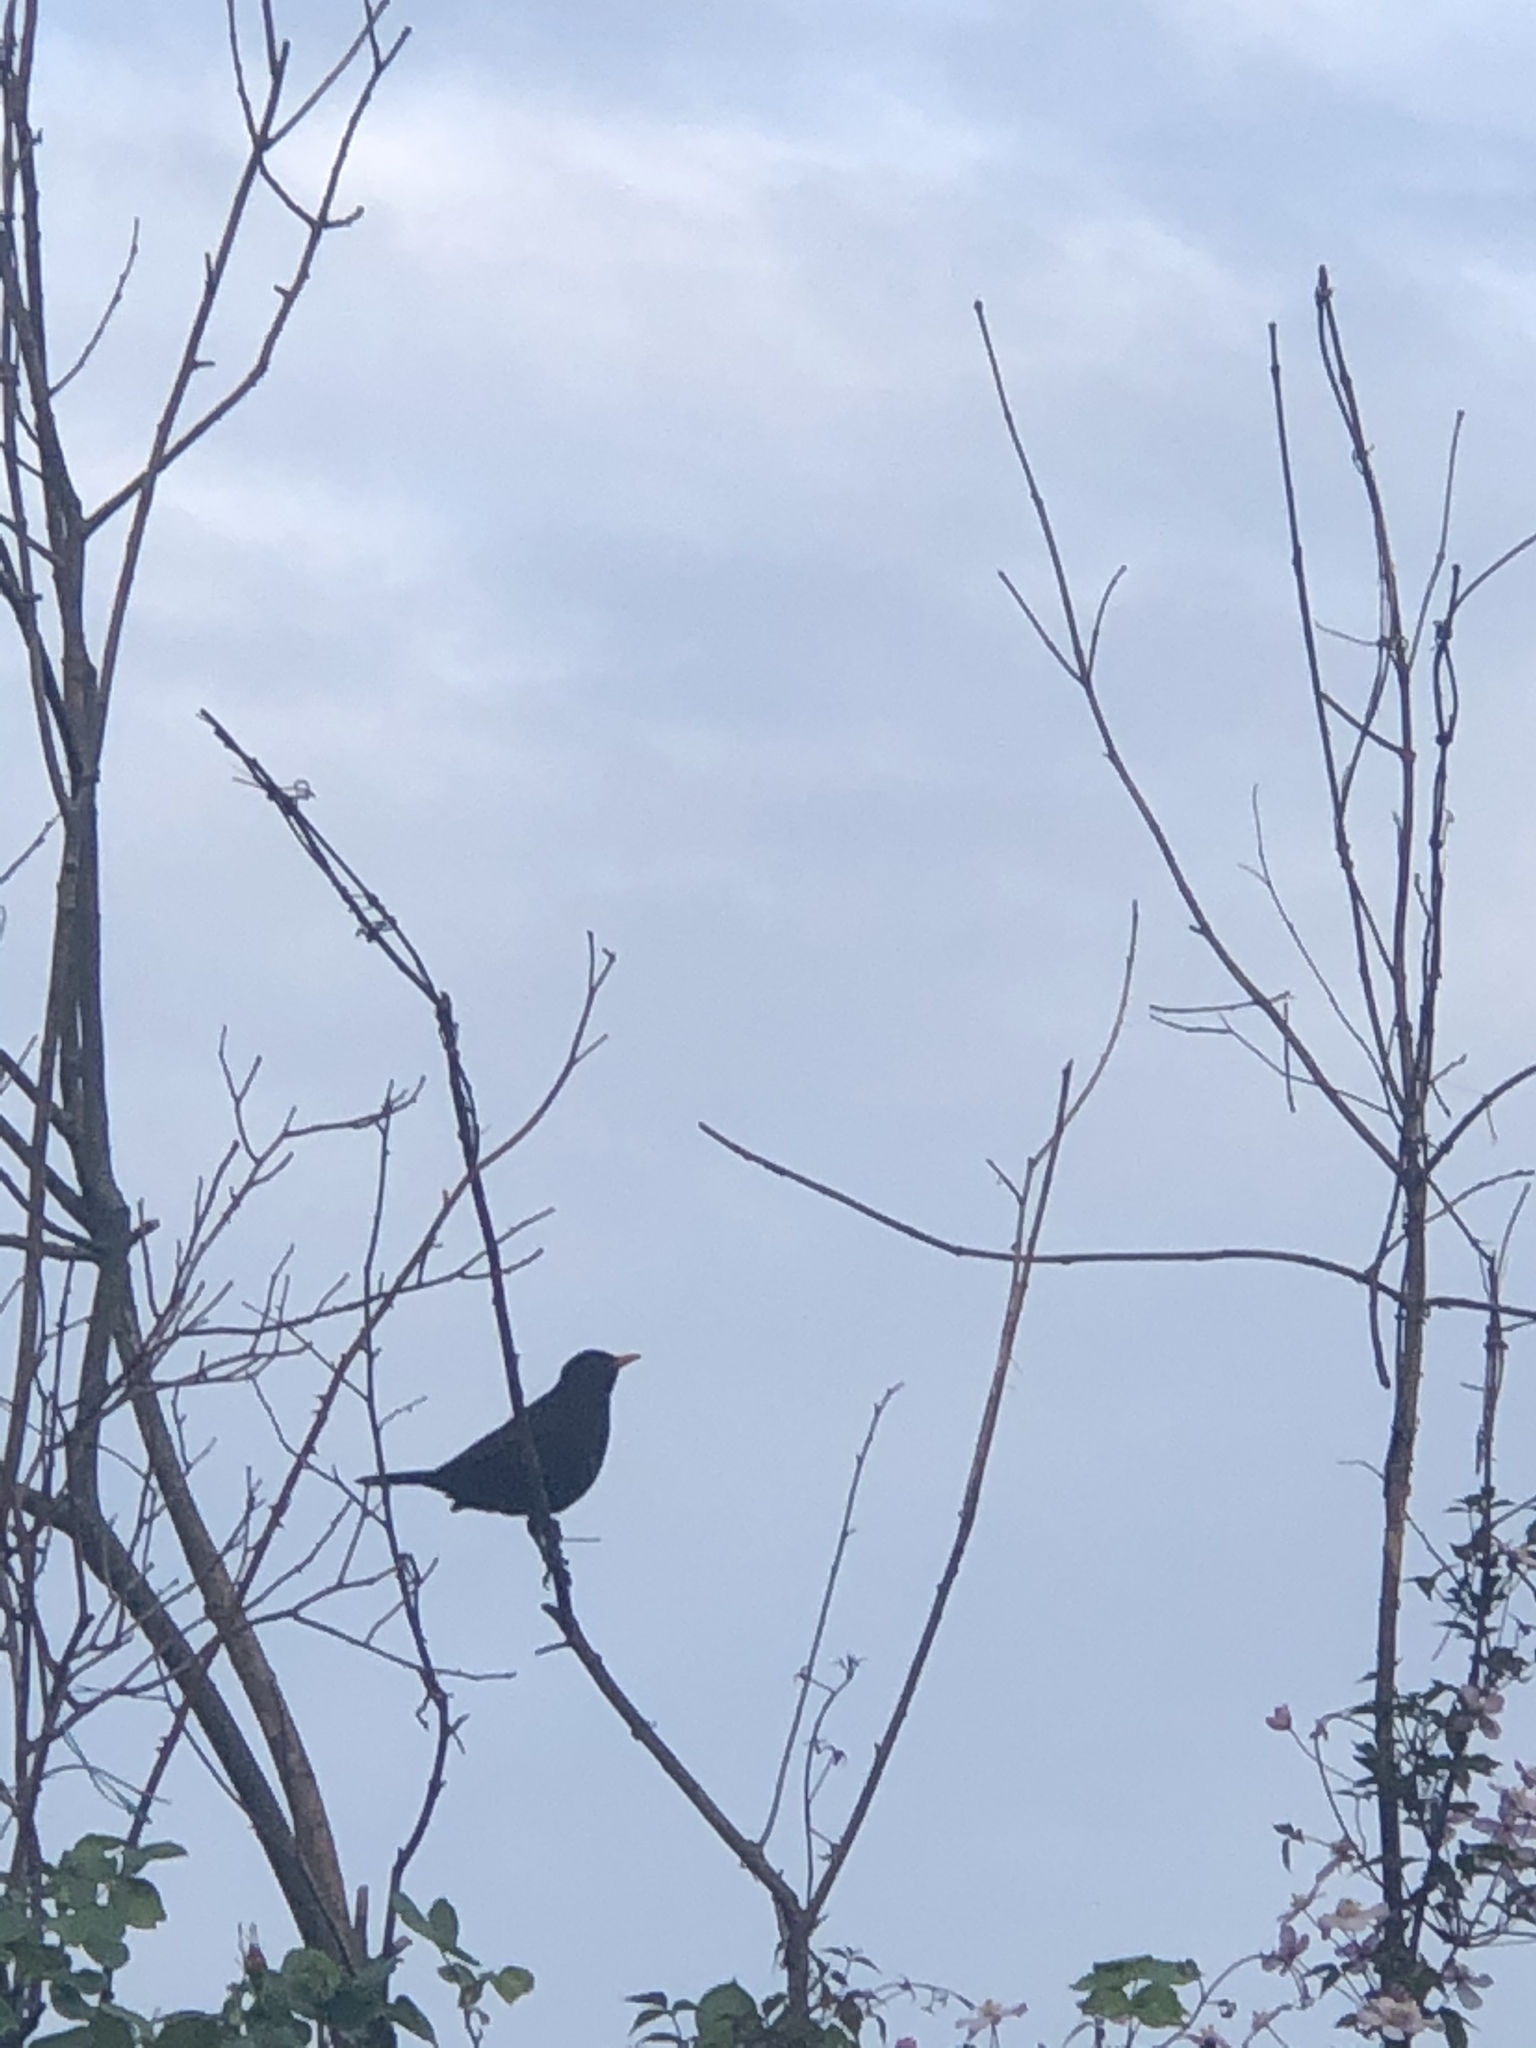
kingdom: Animalia
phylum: Chordata
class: Aves
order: Passeriformes
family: Turdidae
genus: Turdus
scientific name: Turdus merula
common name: Common blackbird
